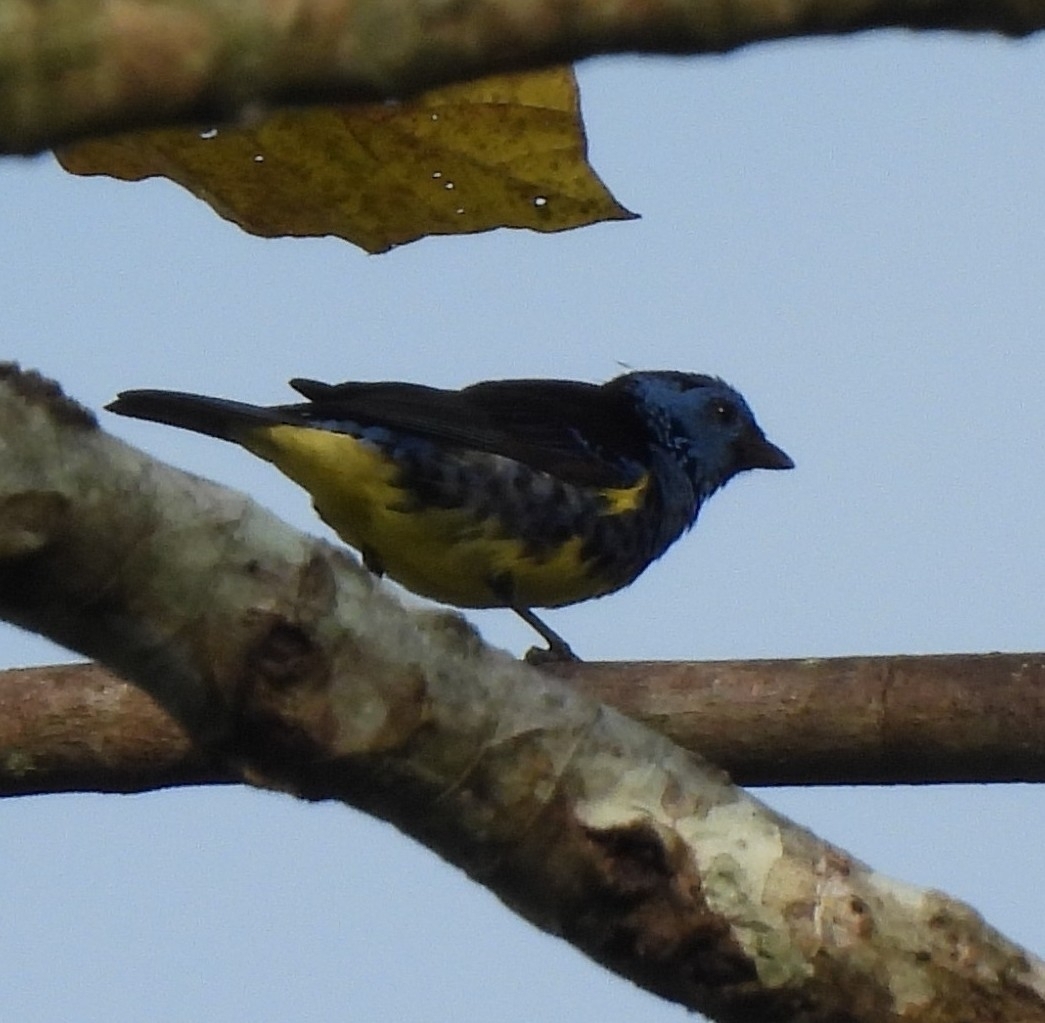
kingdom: Animalia
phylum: Chordata
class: Aves
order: Passeriformes
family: Thraupidae
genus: Tangara
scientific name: Tangara mexicana
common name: Turquoise tanager
